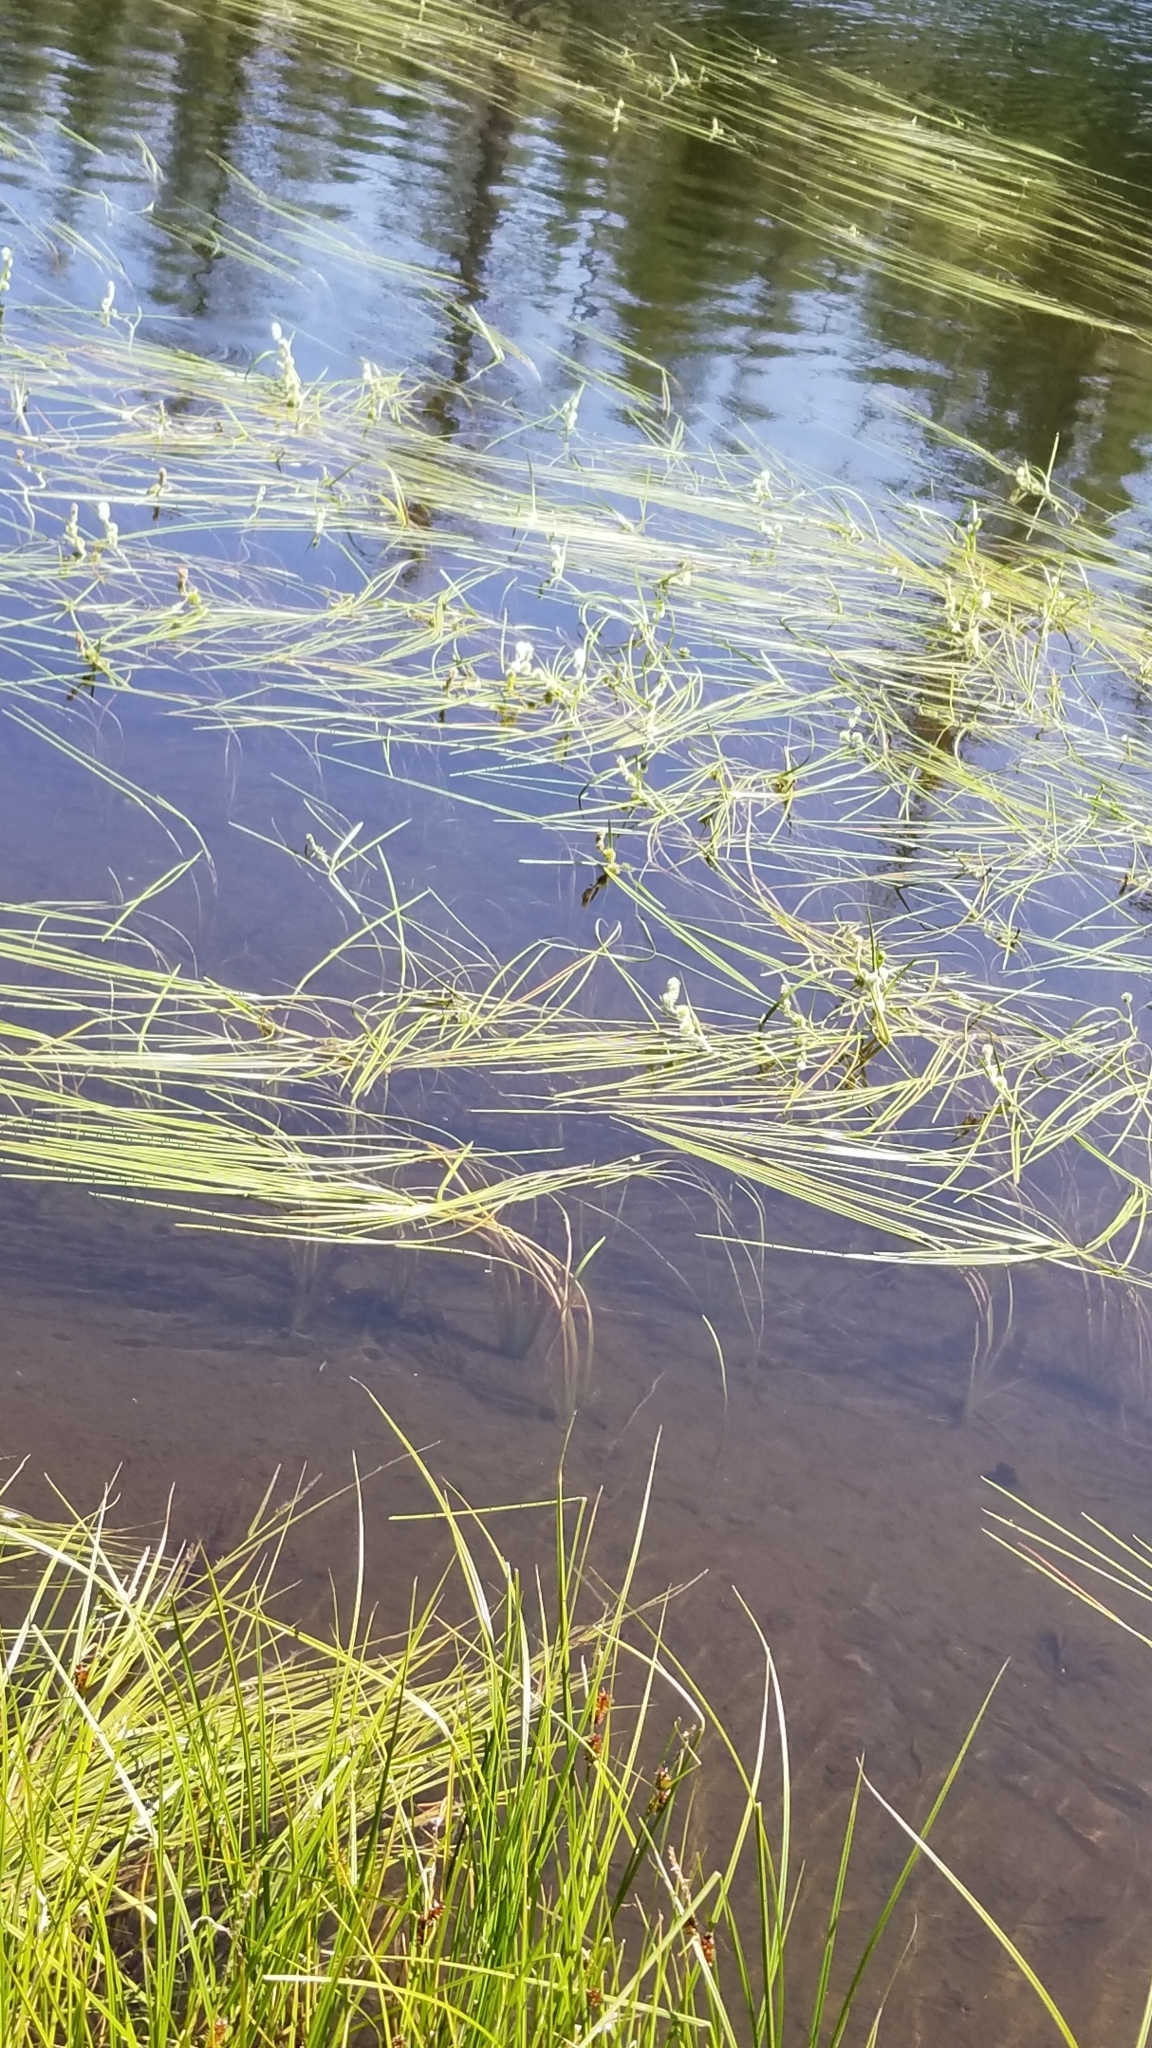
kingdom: Plantae
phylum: Tracheophyta
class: Liliopsida
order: Poales
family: Typhaceae
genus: Sparganium
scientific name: Sparganium angustifolium
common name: Floating bur-reed
